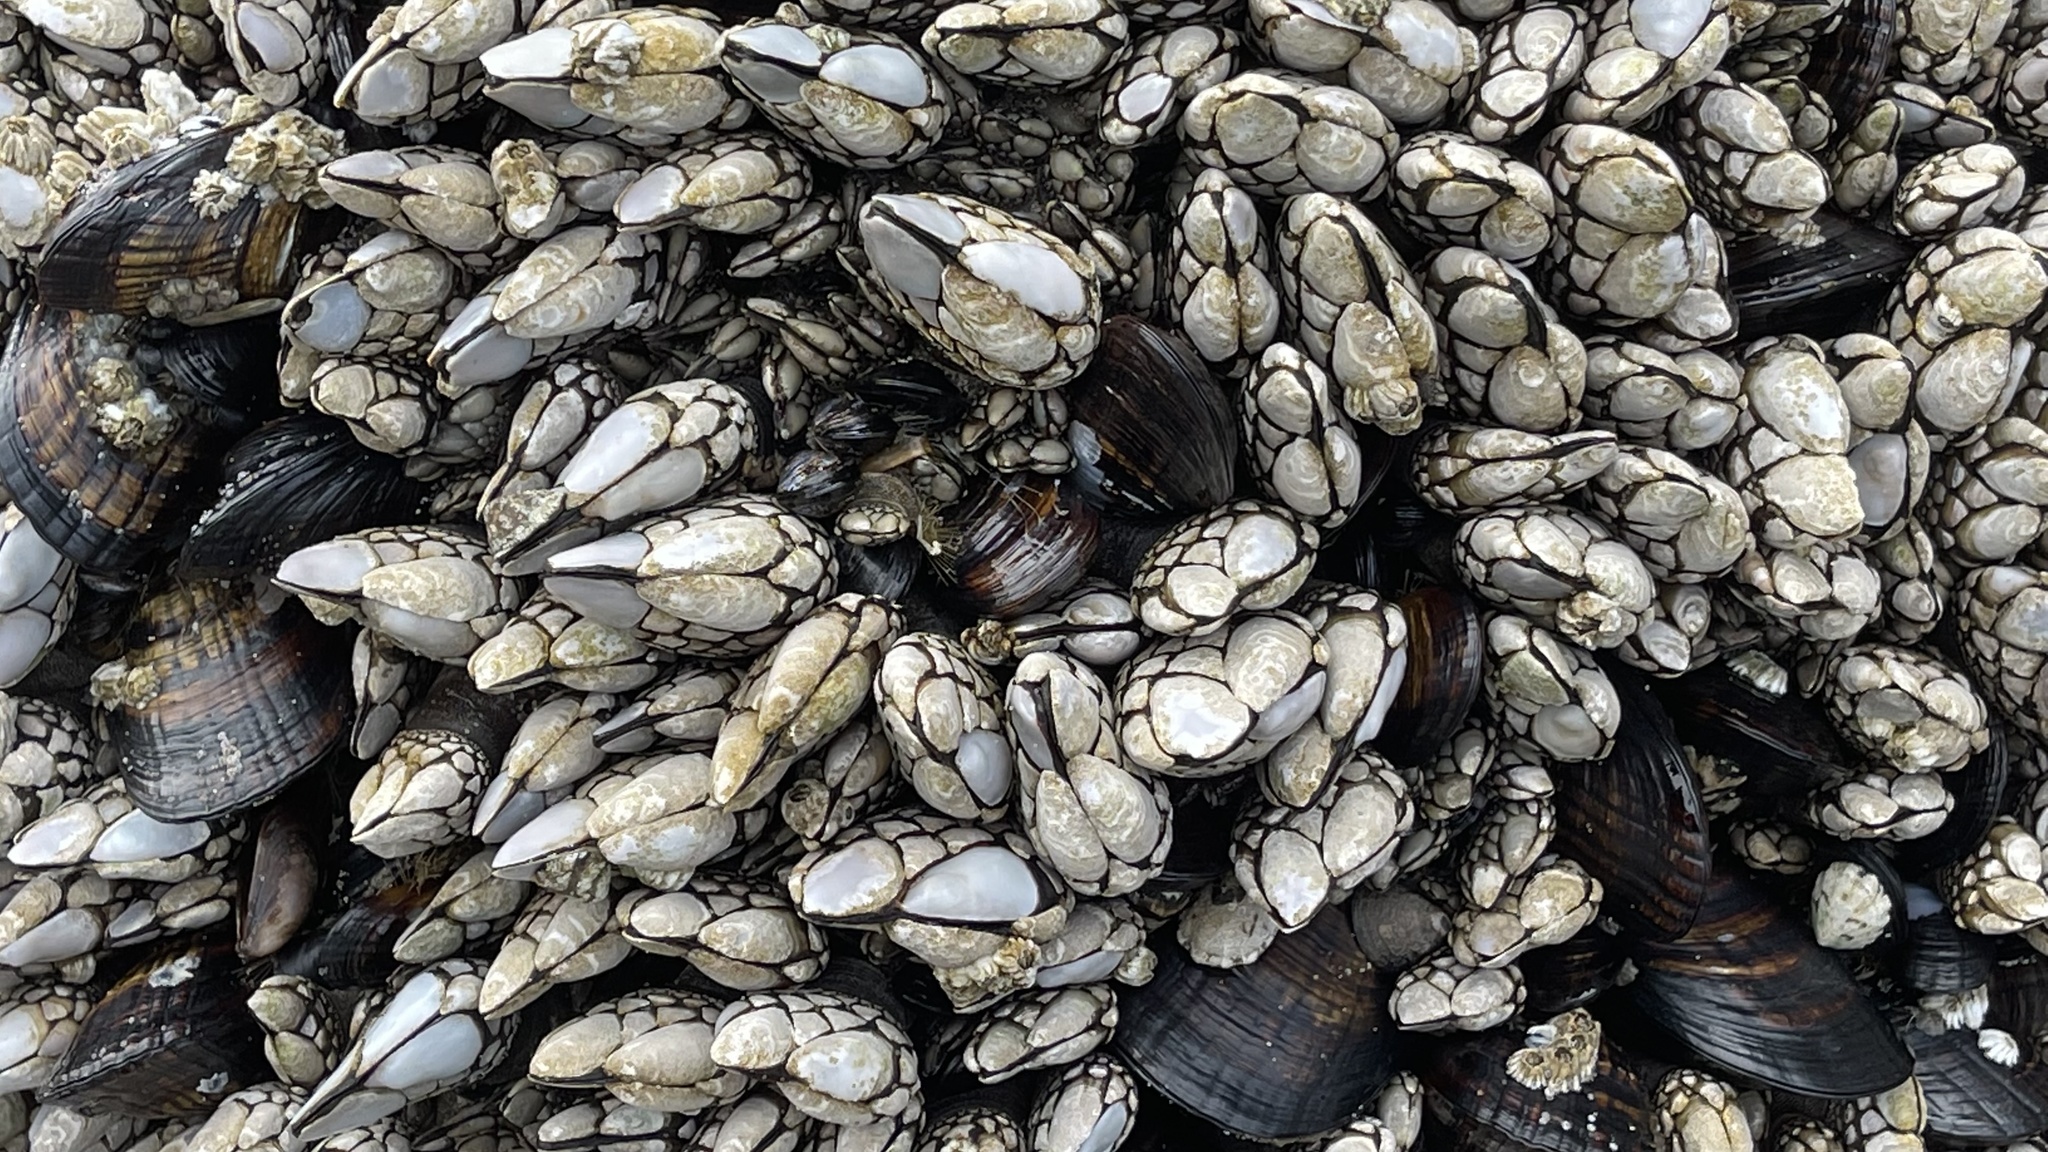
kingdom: Animalia
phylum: Arthropoda
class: Maxillopoda
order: Pedunculata
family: Pollicipedidae
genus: Pollicipes
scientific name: Pollicipes polymerus
